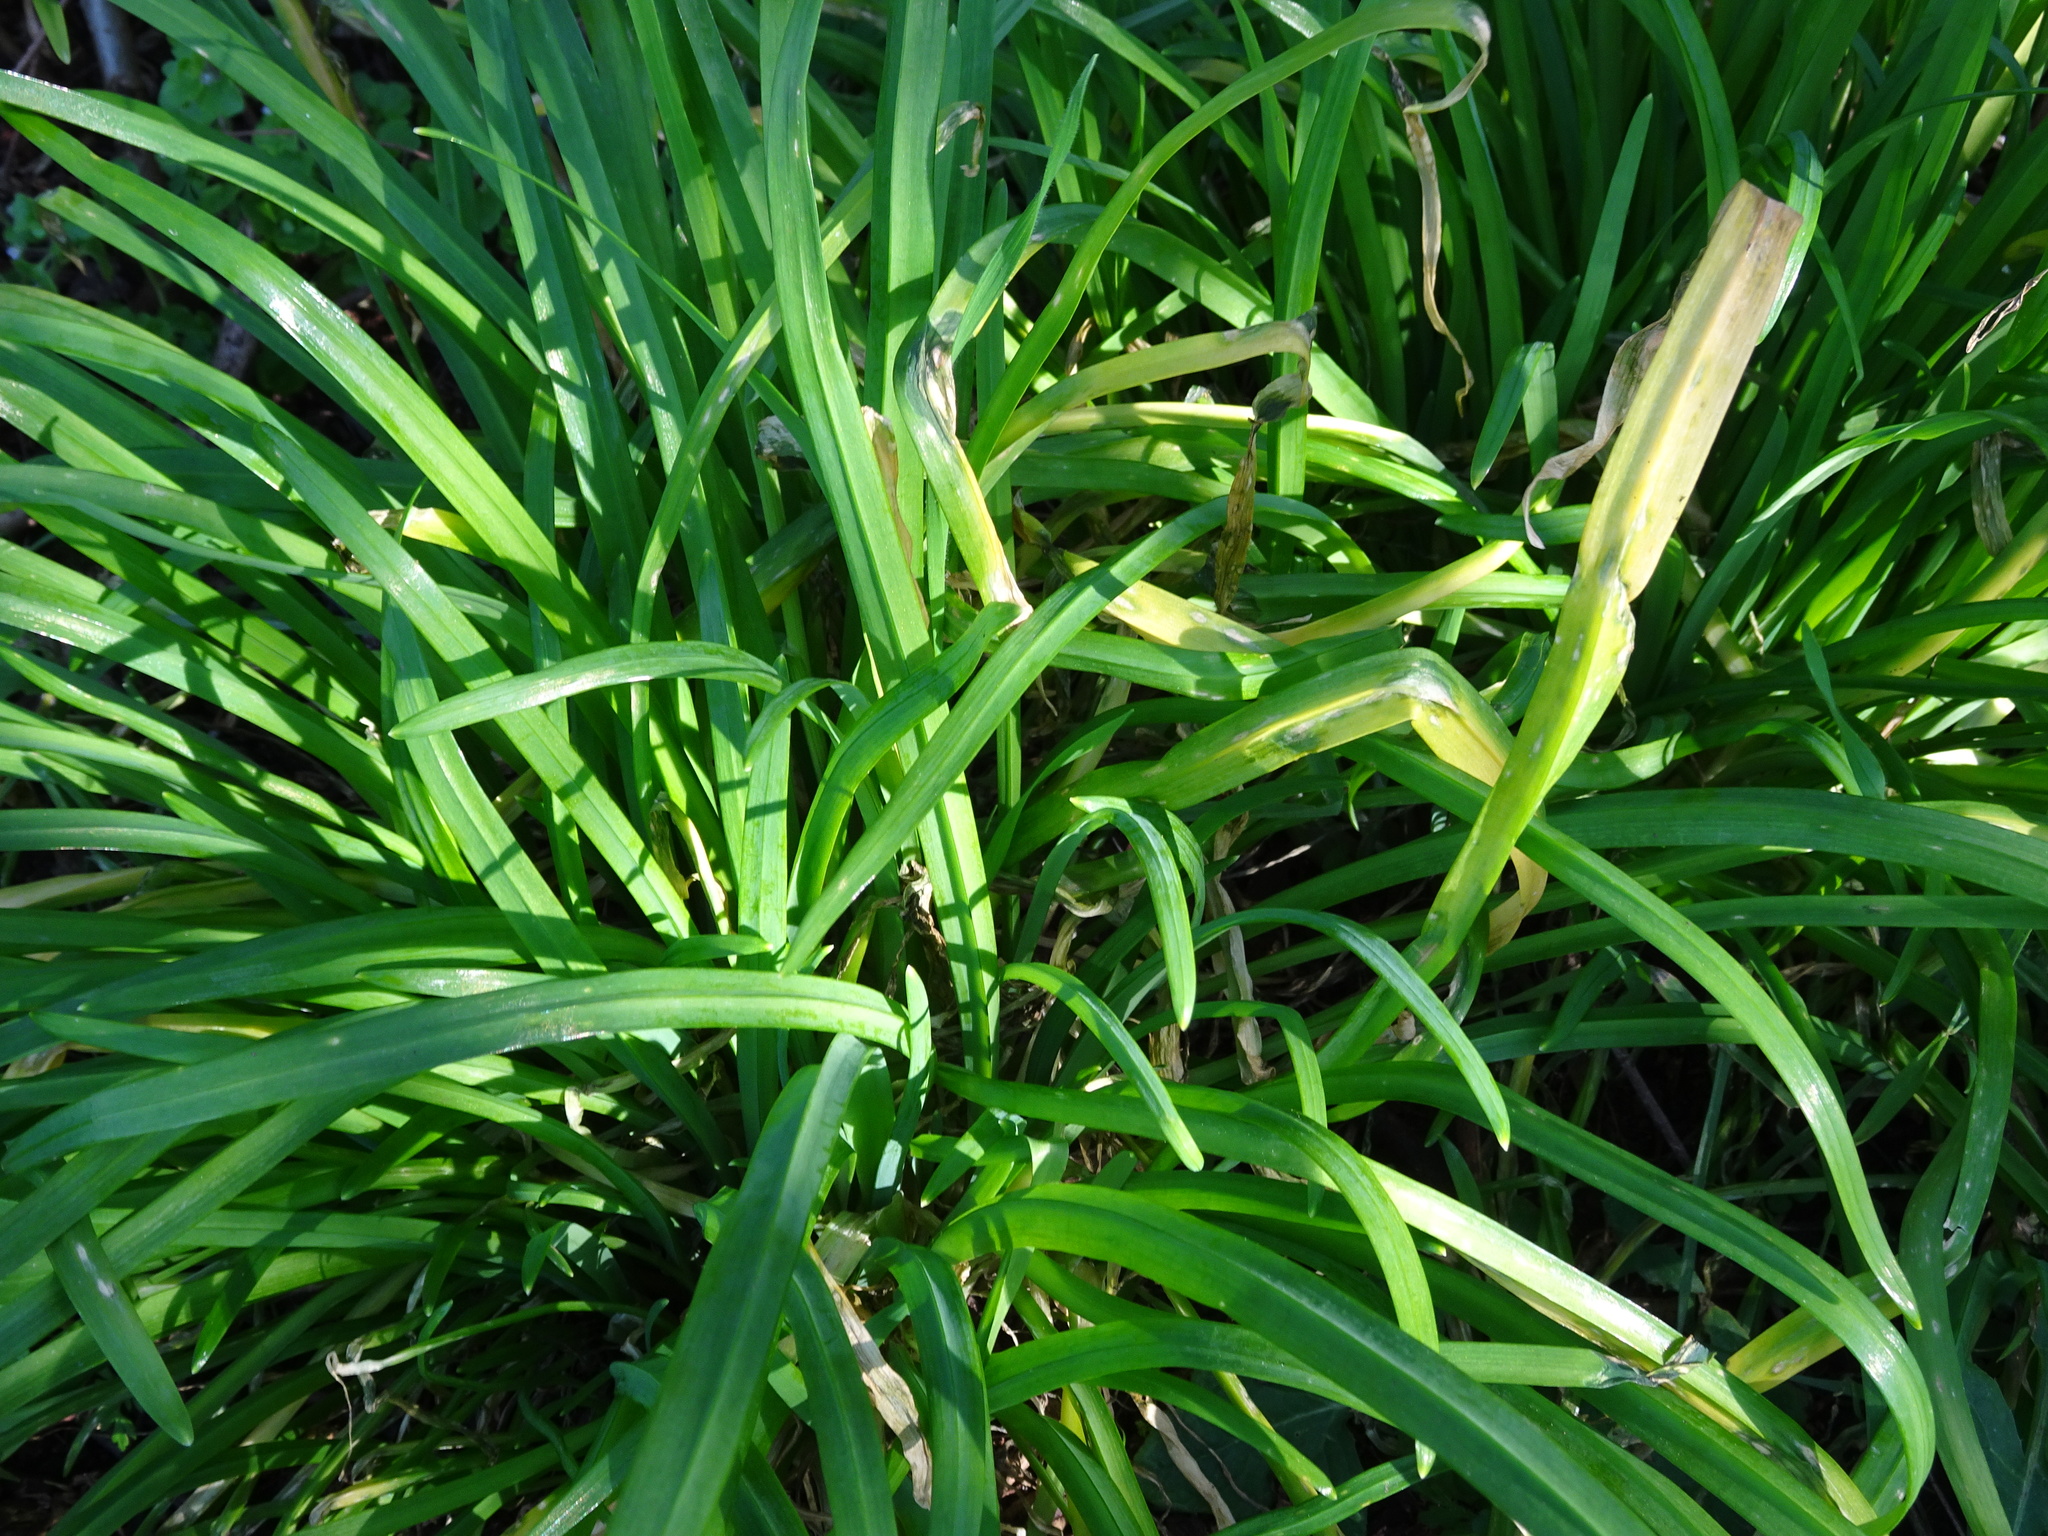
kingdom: Plantae
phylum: Tracheophyta
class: Liliopsida
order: Asparagales
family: Amaryllidaceae
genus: Allium
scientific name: Allium triquetrum
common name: Three-cornered garlic
